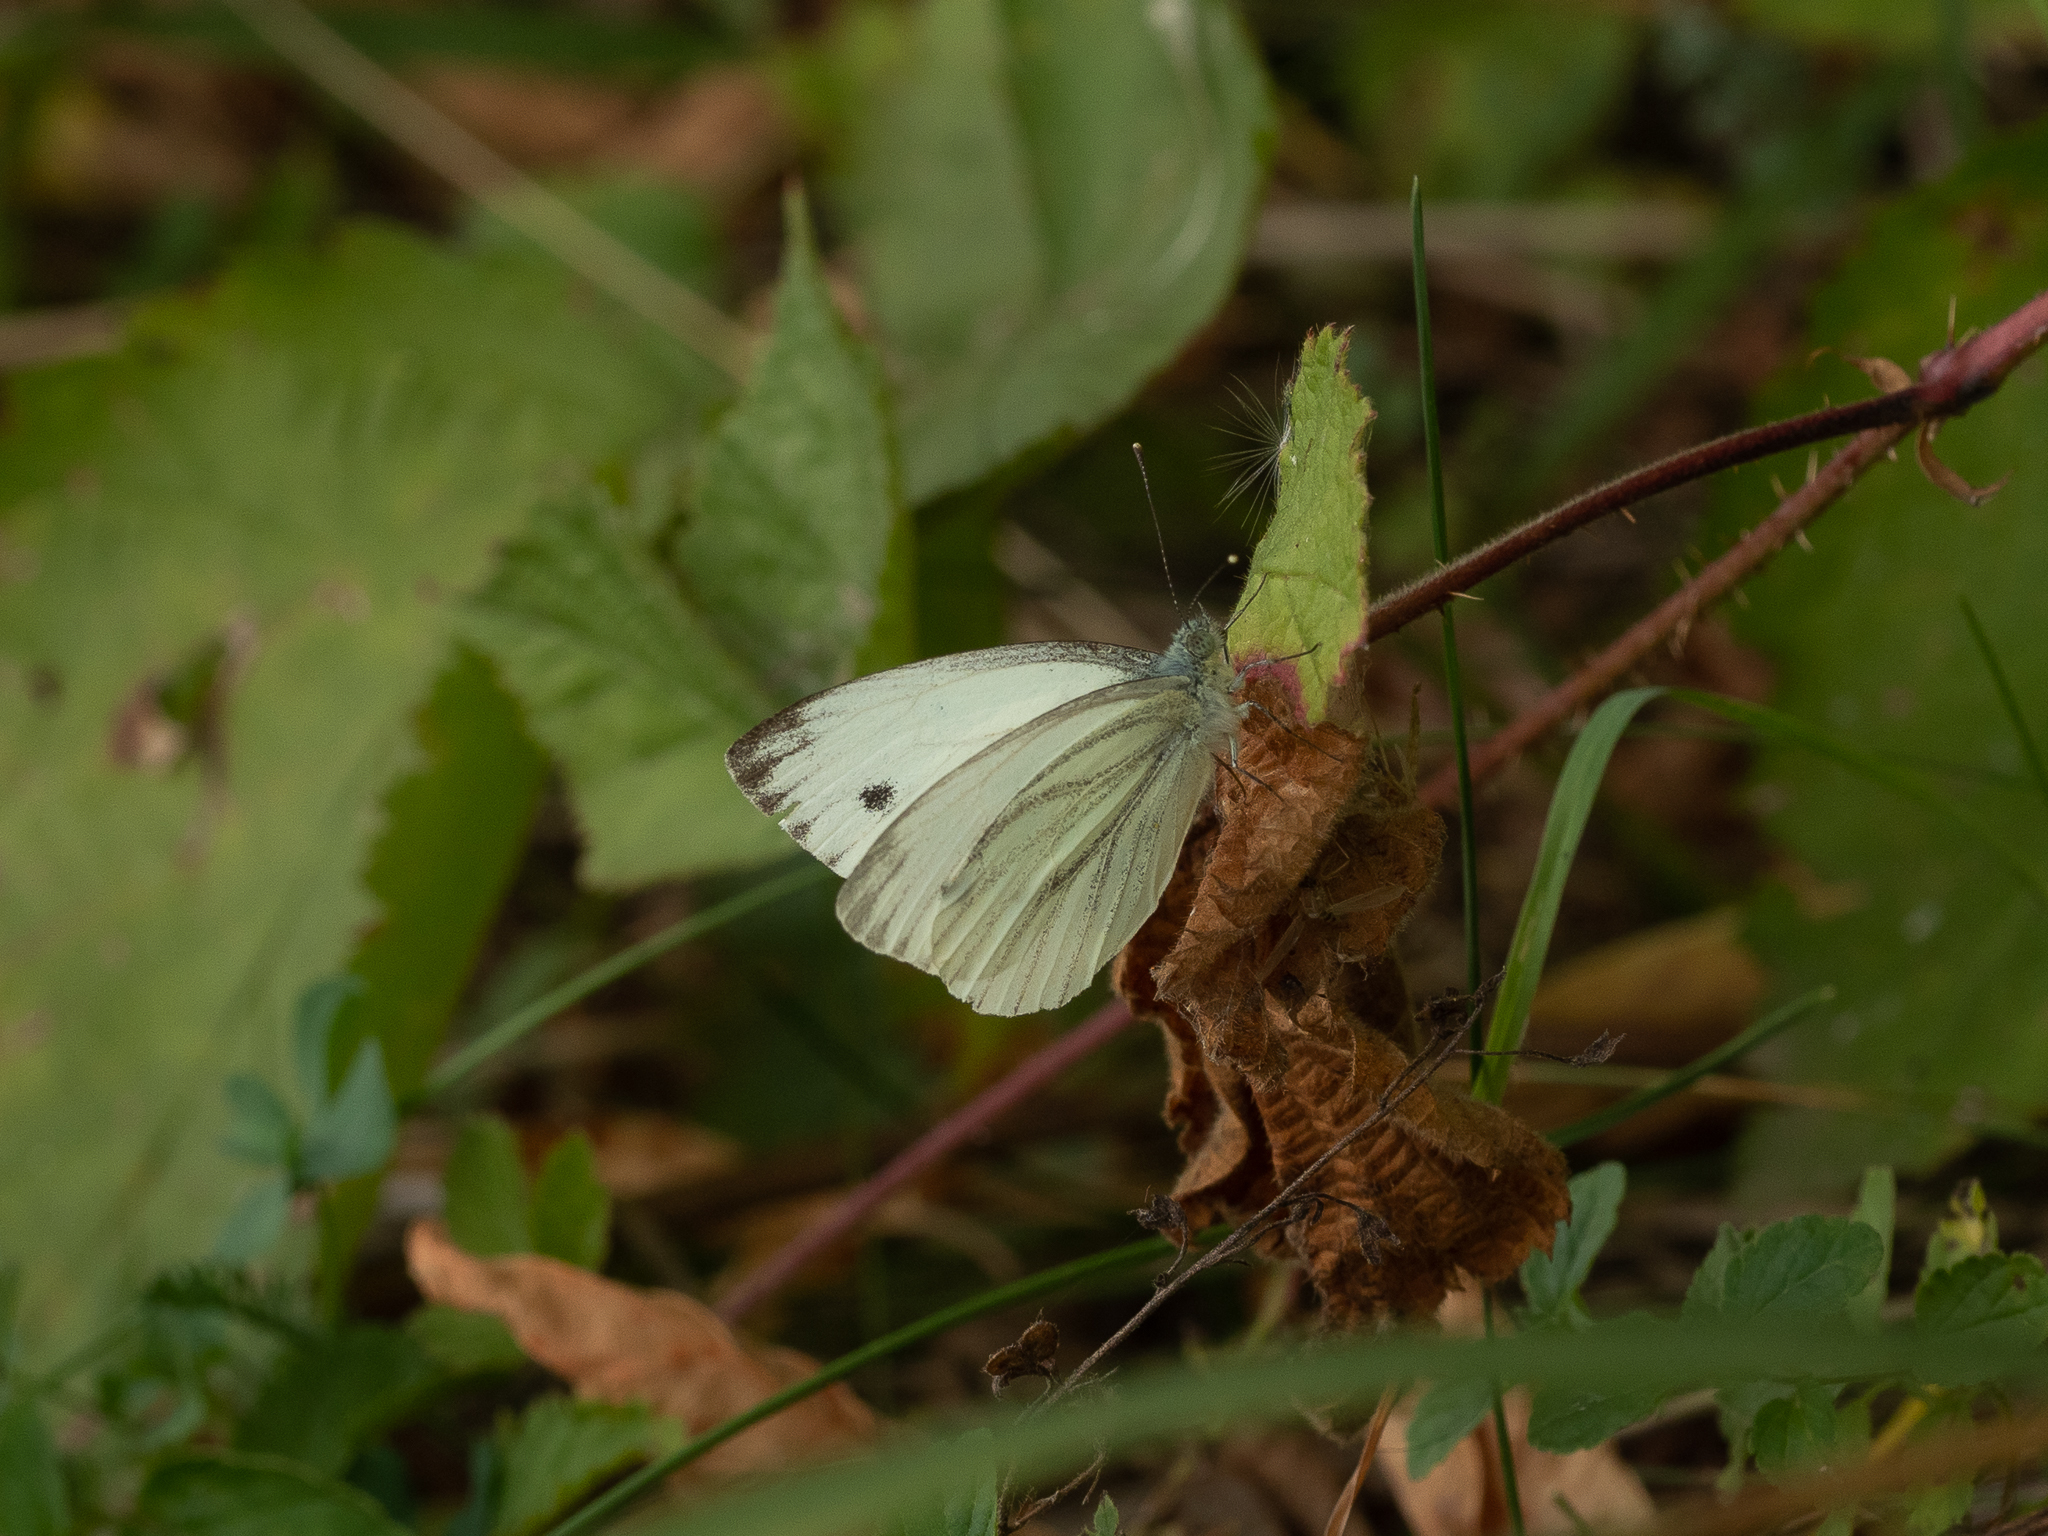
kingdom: Animalia
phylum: Arthropoda
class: Insecta
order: Lepidoptera
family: Pieridae
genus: Pieris
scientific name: Pieris napi
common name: Green-veined white
